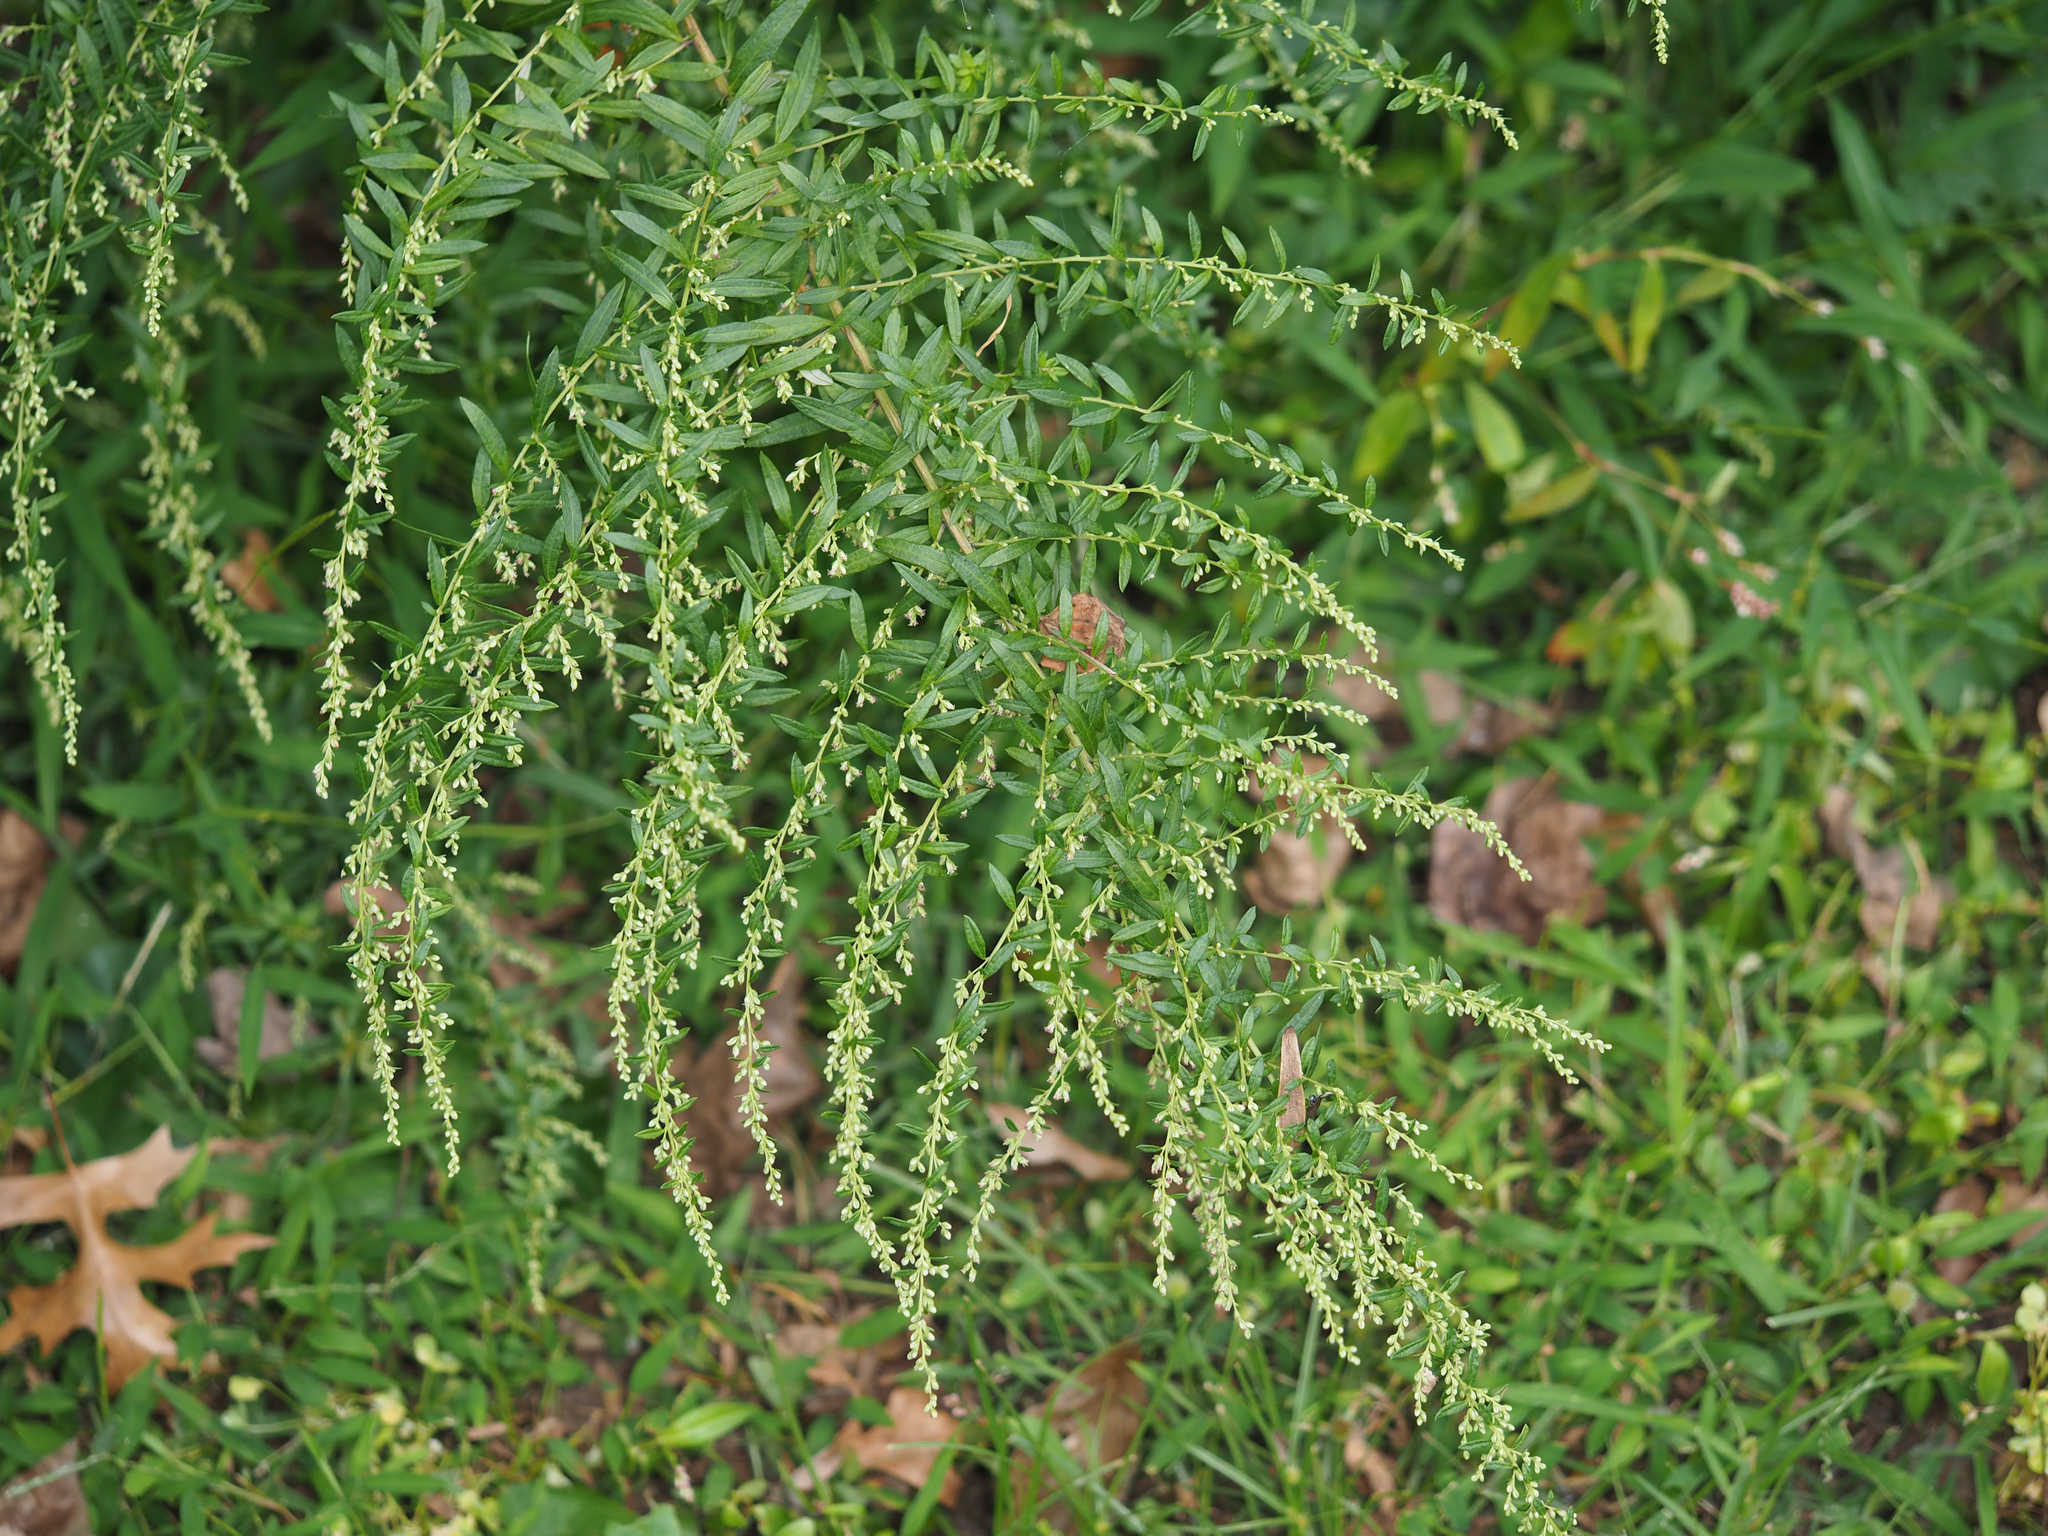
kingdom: Plantae
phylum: Tracheophyta
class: Magnoliopsida
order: Asterales
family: Asteraceae
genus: Artemisia
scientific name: Artemisia vulgaris
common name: Mugwort
